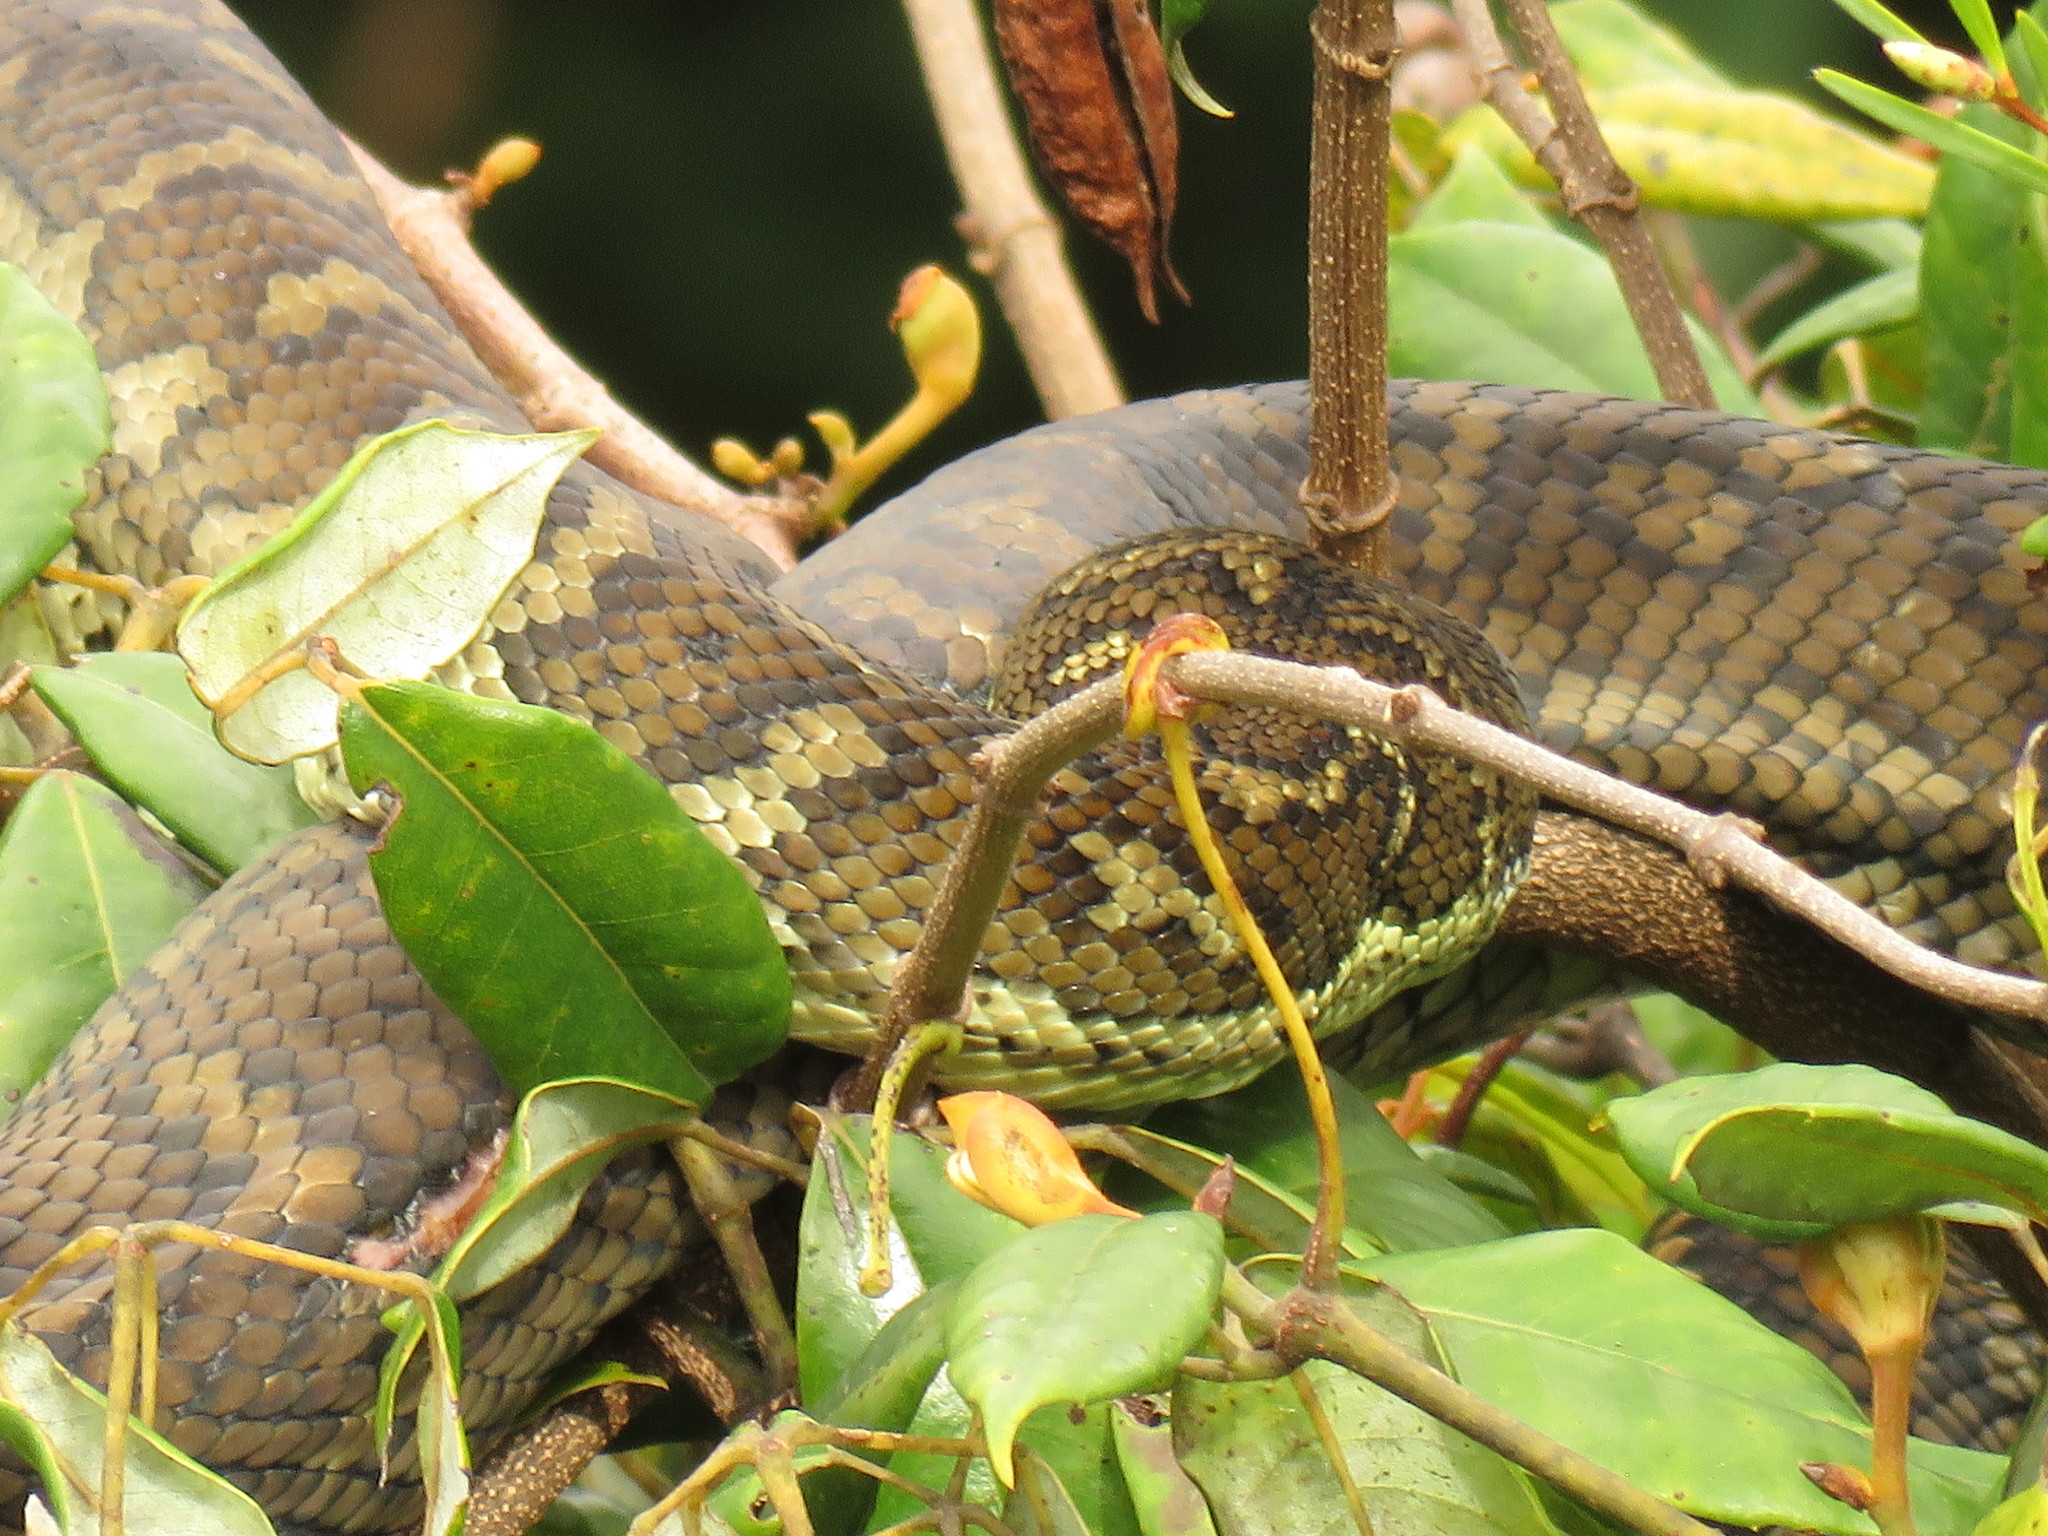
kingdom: Animalia
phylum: Chordata
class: Squamata
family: Pythonidae
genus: Morelia
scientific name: Morelia spilota
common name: Carpet python
